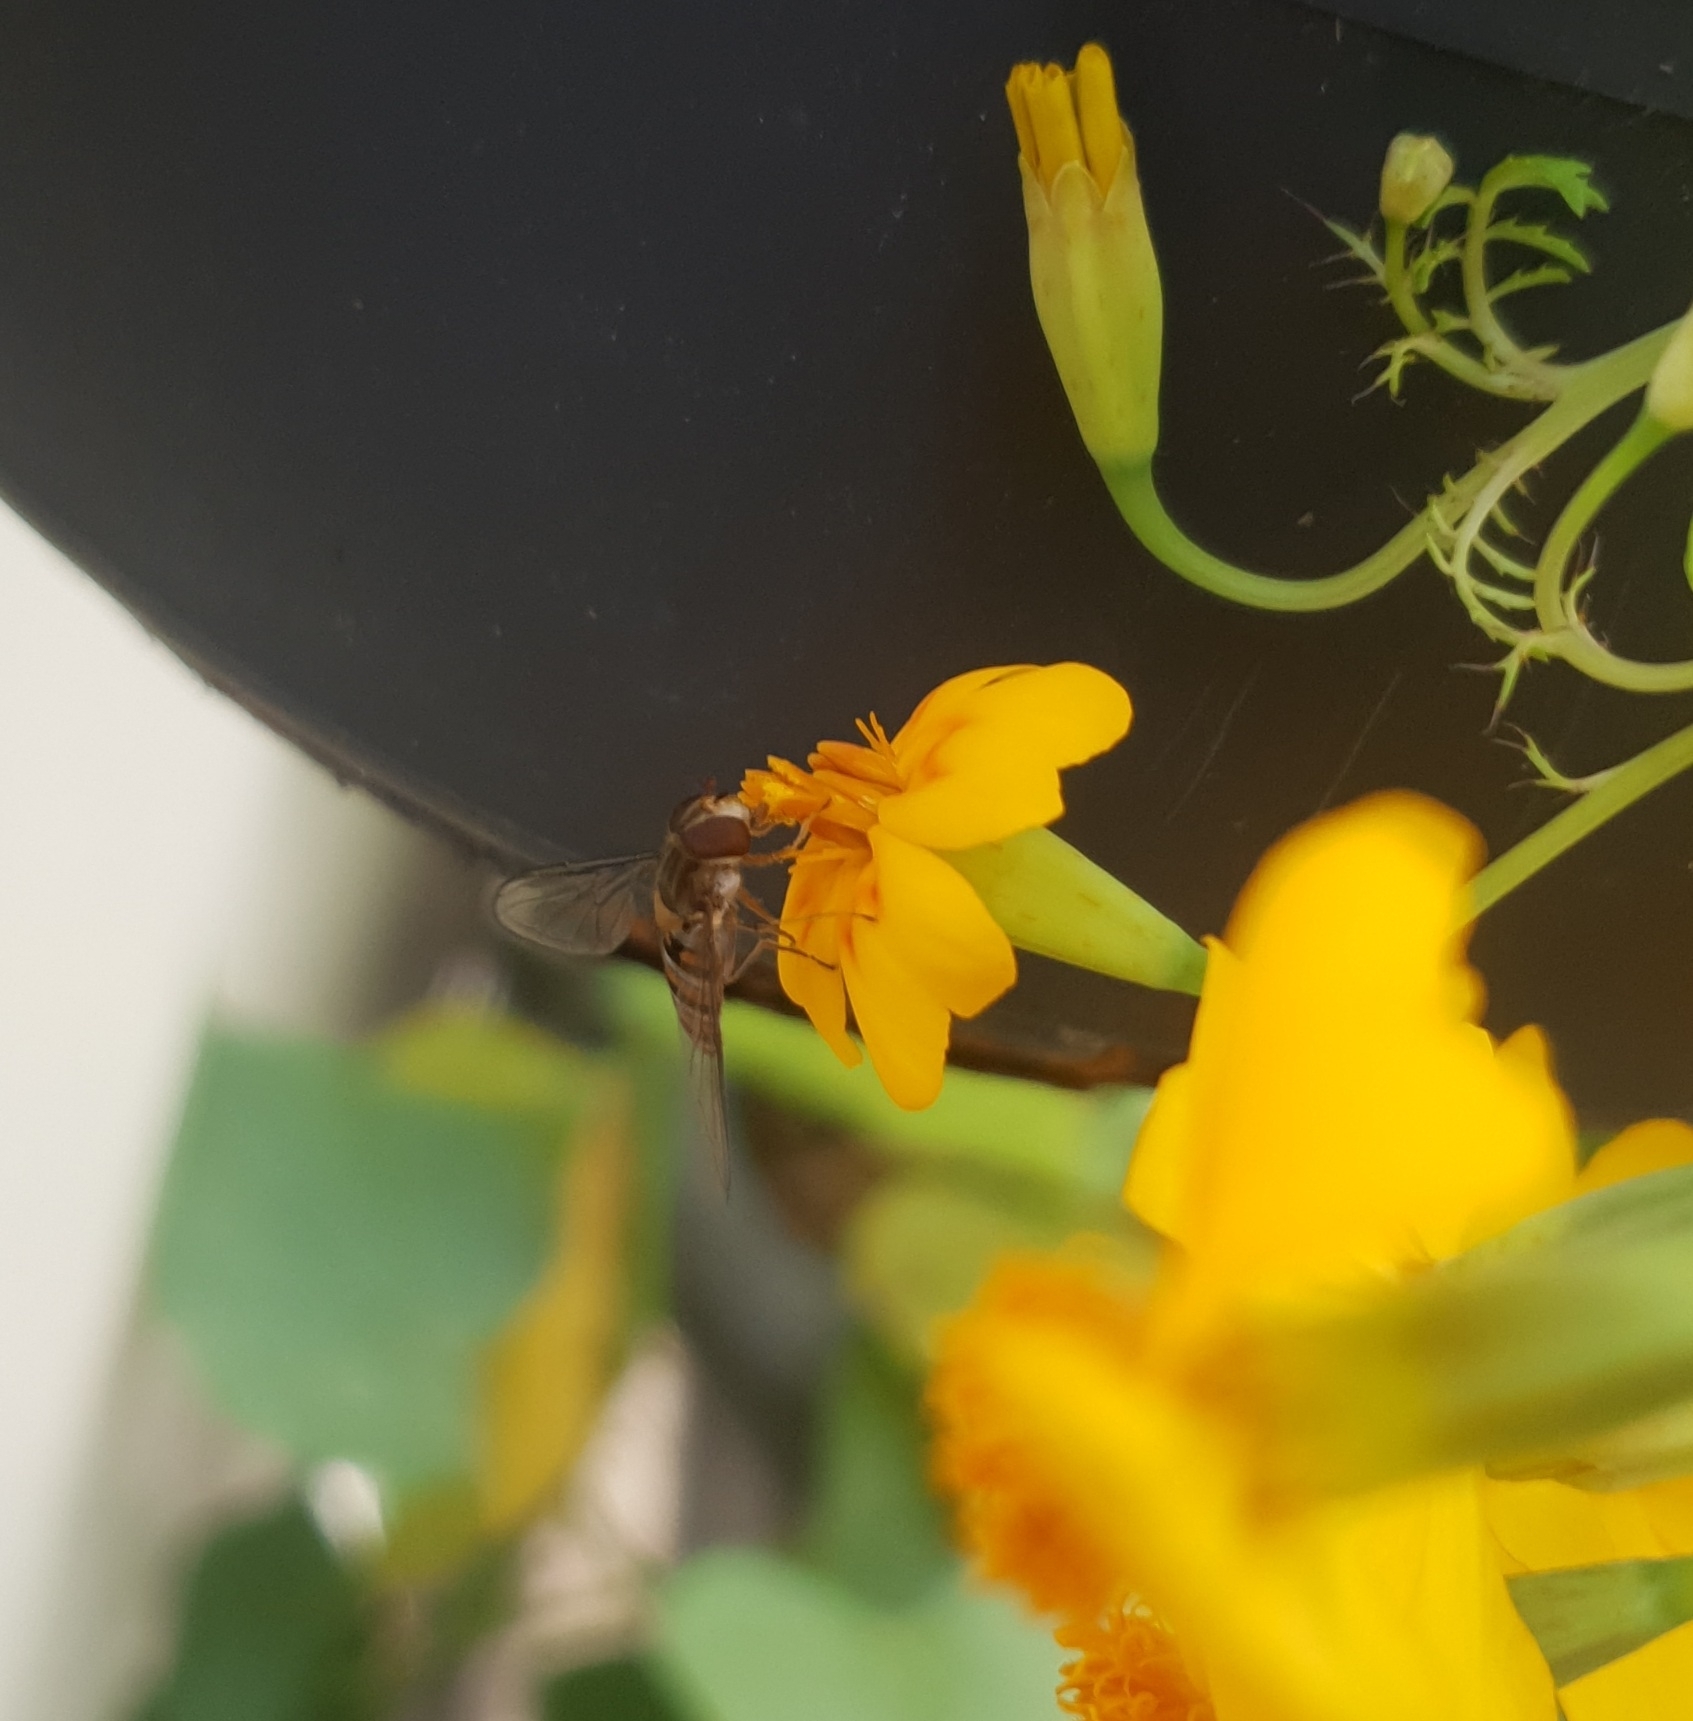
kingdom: Animalia
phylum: Arthropoda
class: Insecta
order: Diptera
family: Syrphidae
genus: Episyrphus
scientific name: Episyrphus balteatus
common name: Marmalade hoverfly
